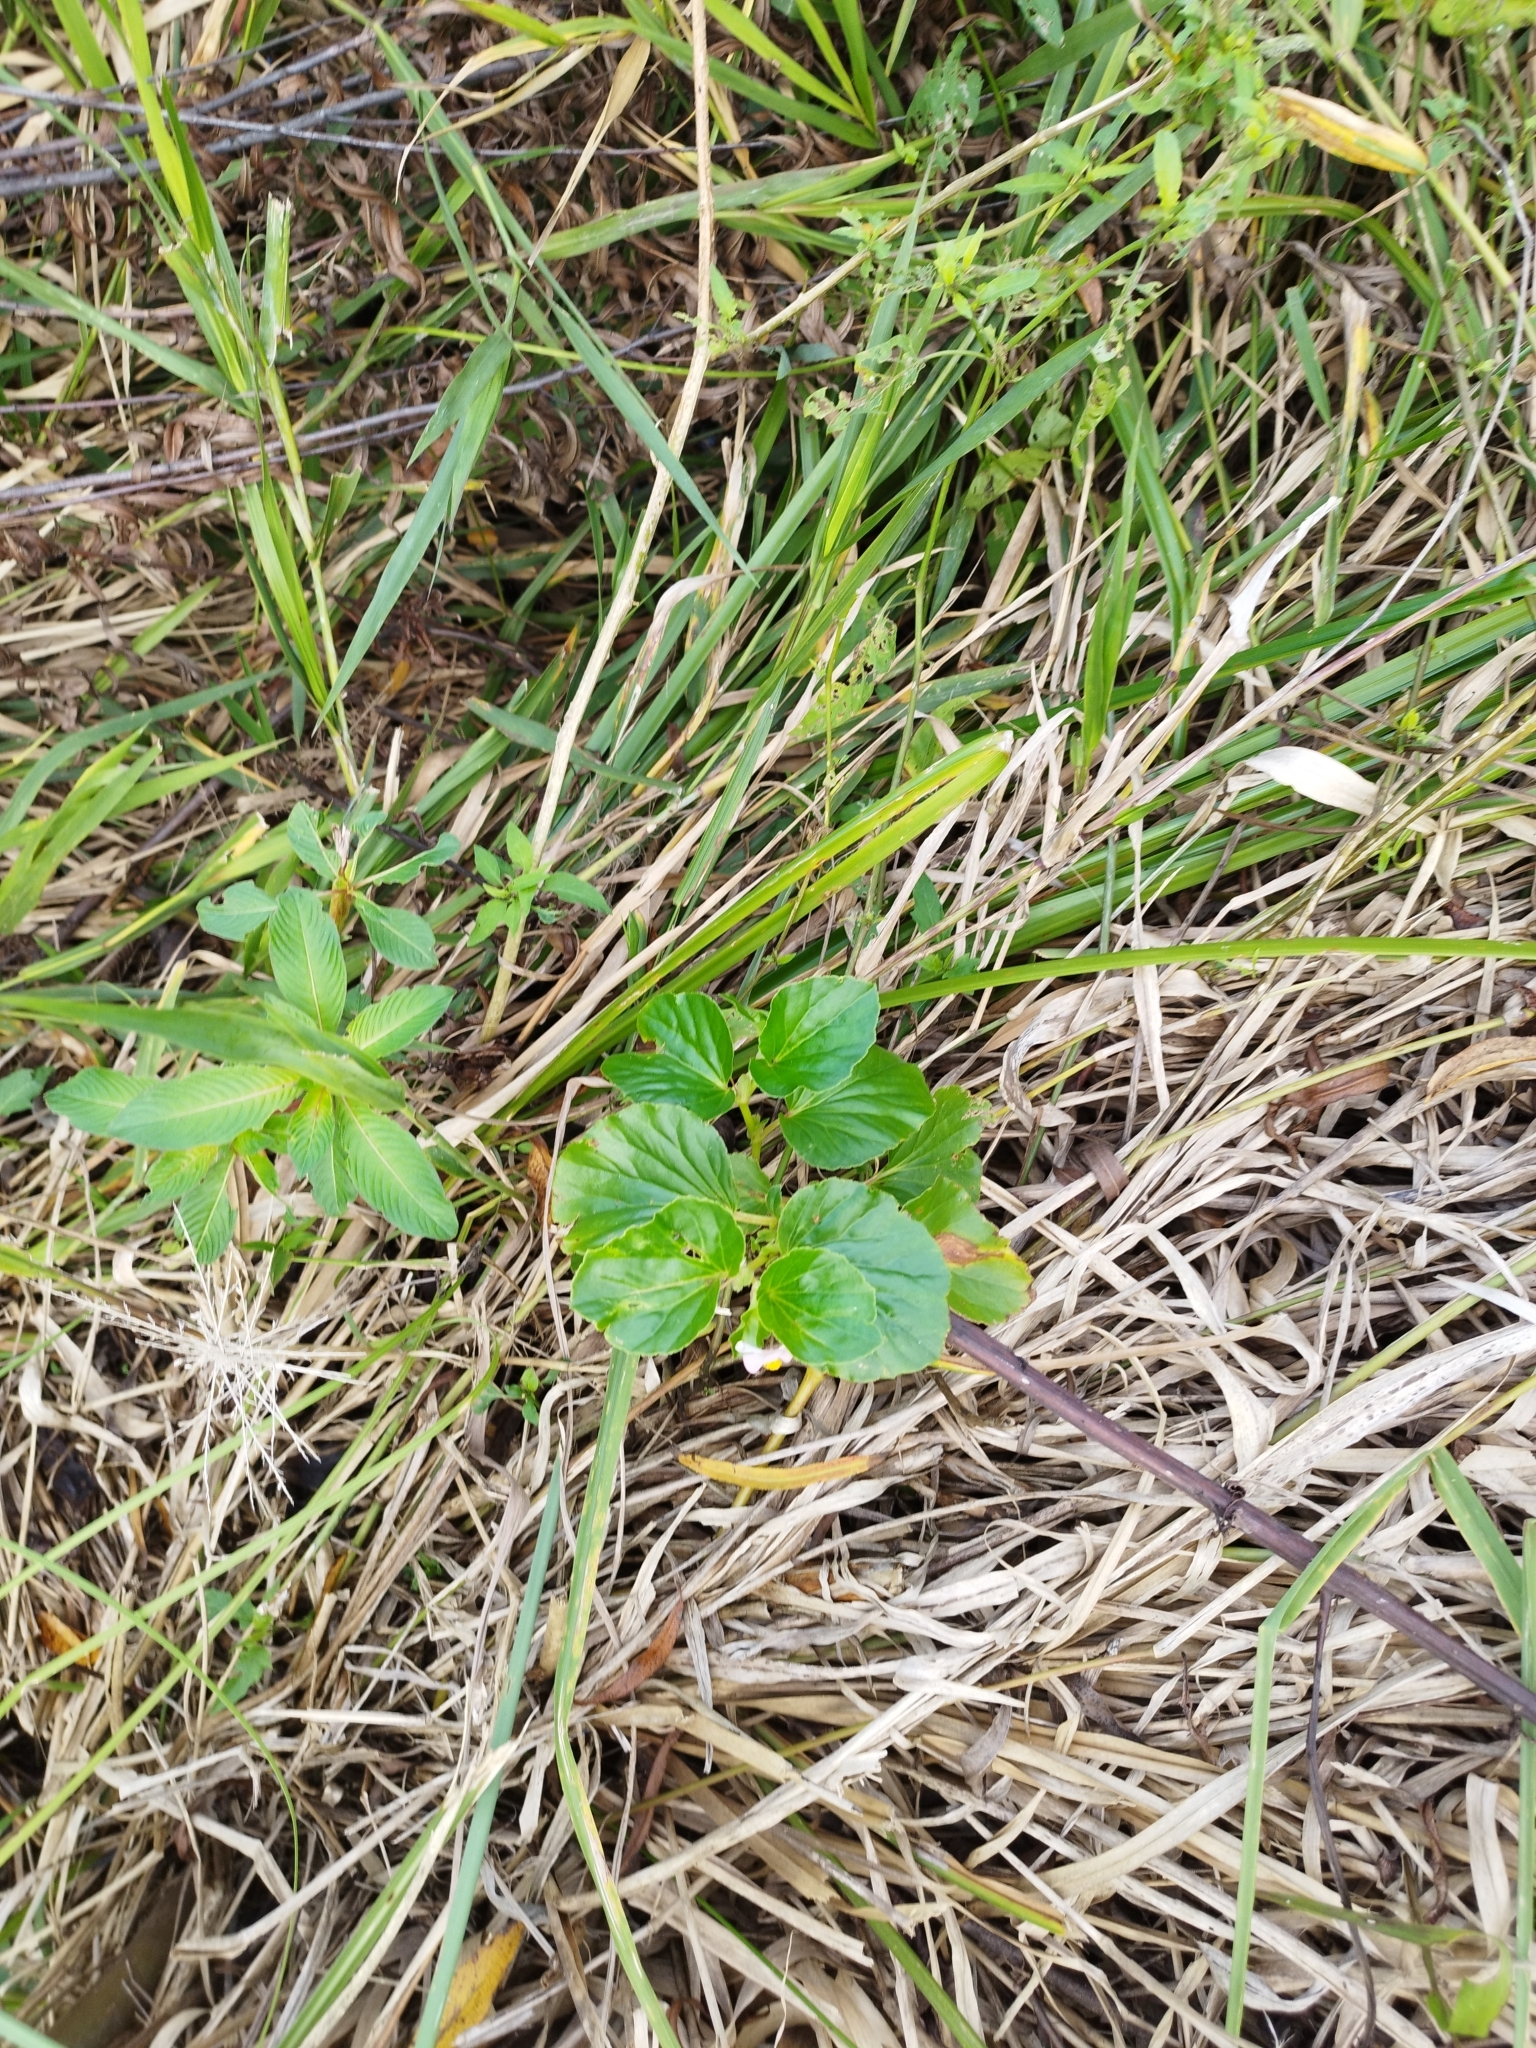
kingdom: Plantae
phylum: Tracheophyta
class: Magnoliopsida
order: Cucurbitales
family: Begoniaceae
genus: Begonia
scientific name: Begonia cucullata
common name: Clubbed begonia
